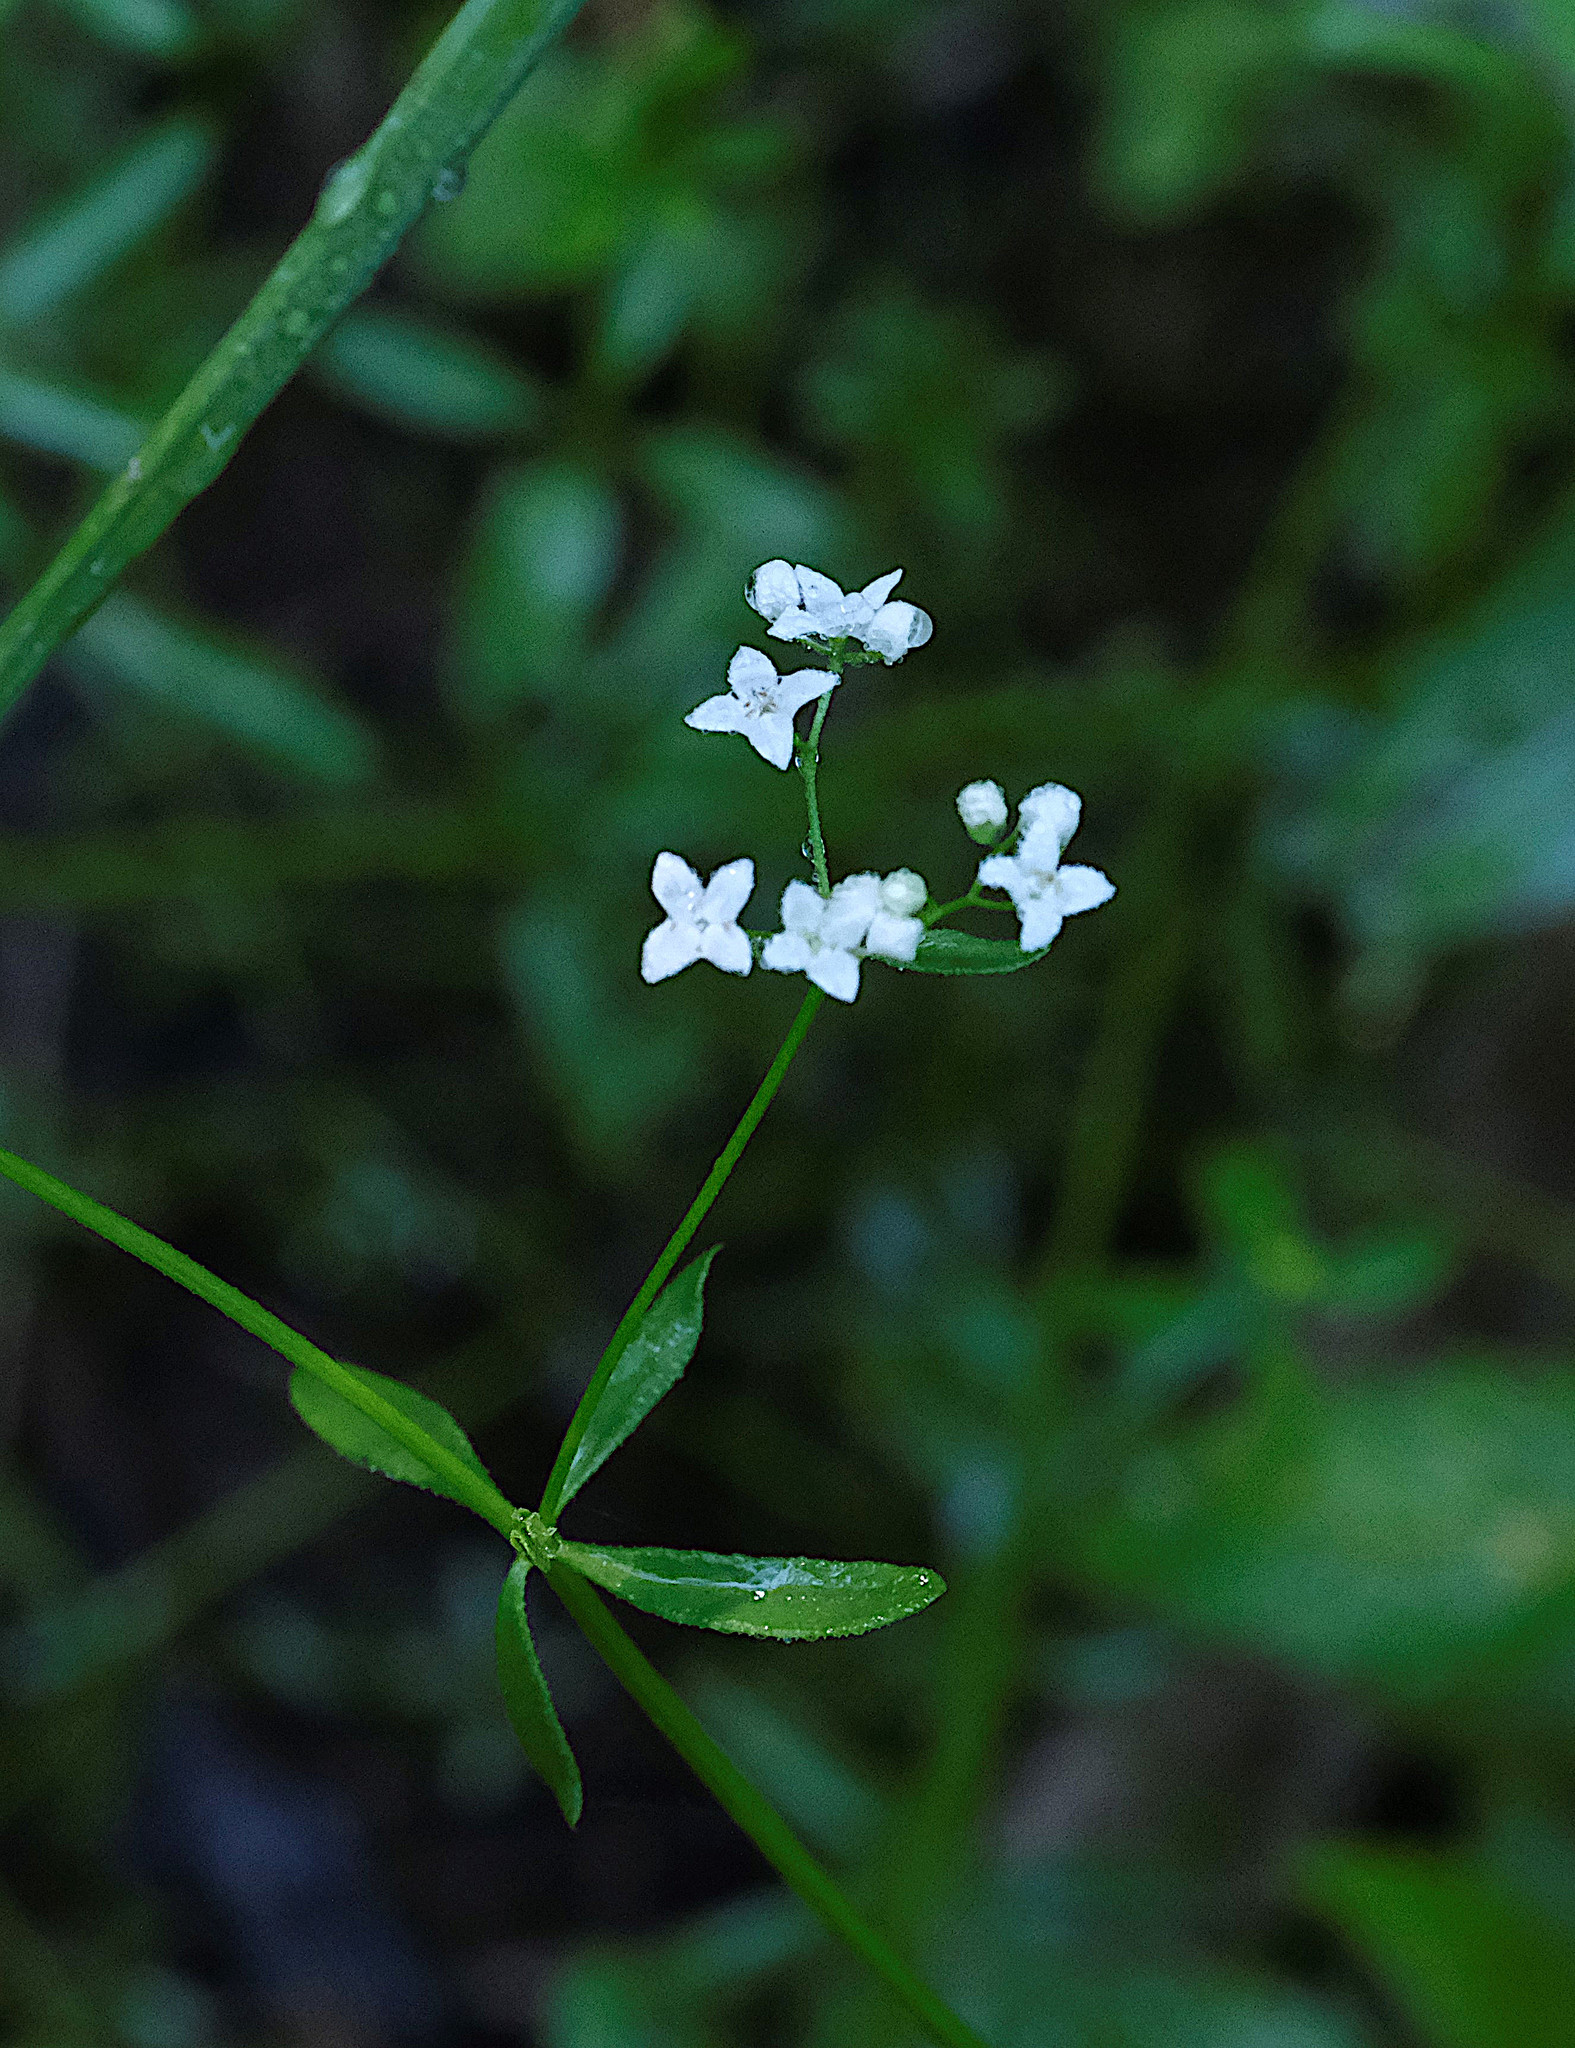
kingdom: Plantae
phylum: Tracheophyta
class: Magnoliopsida
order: Gentianales
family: Rubiaceae
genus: Galium
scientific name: Galium labradoricum
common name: Labrador bedstraw
